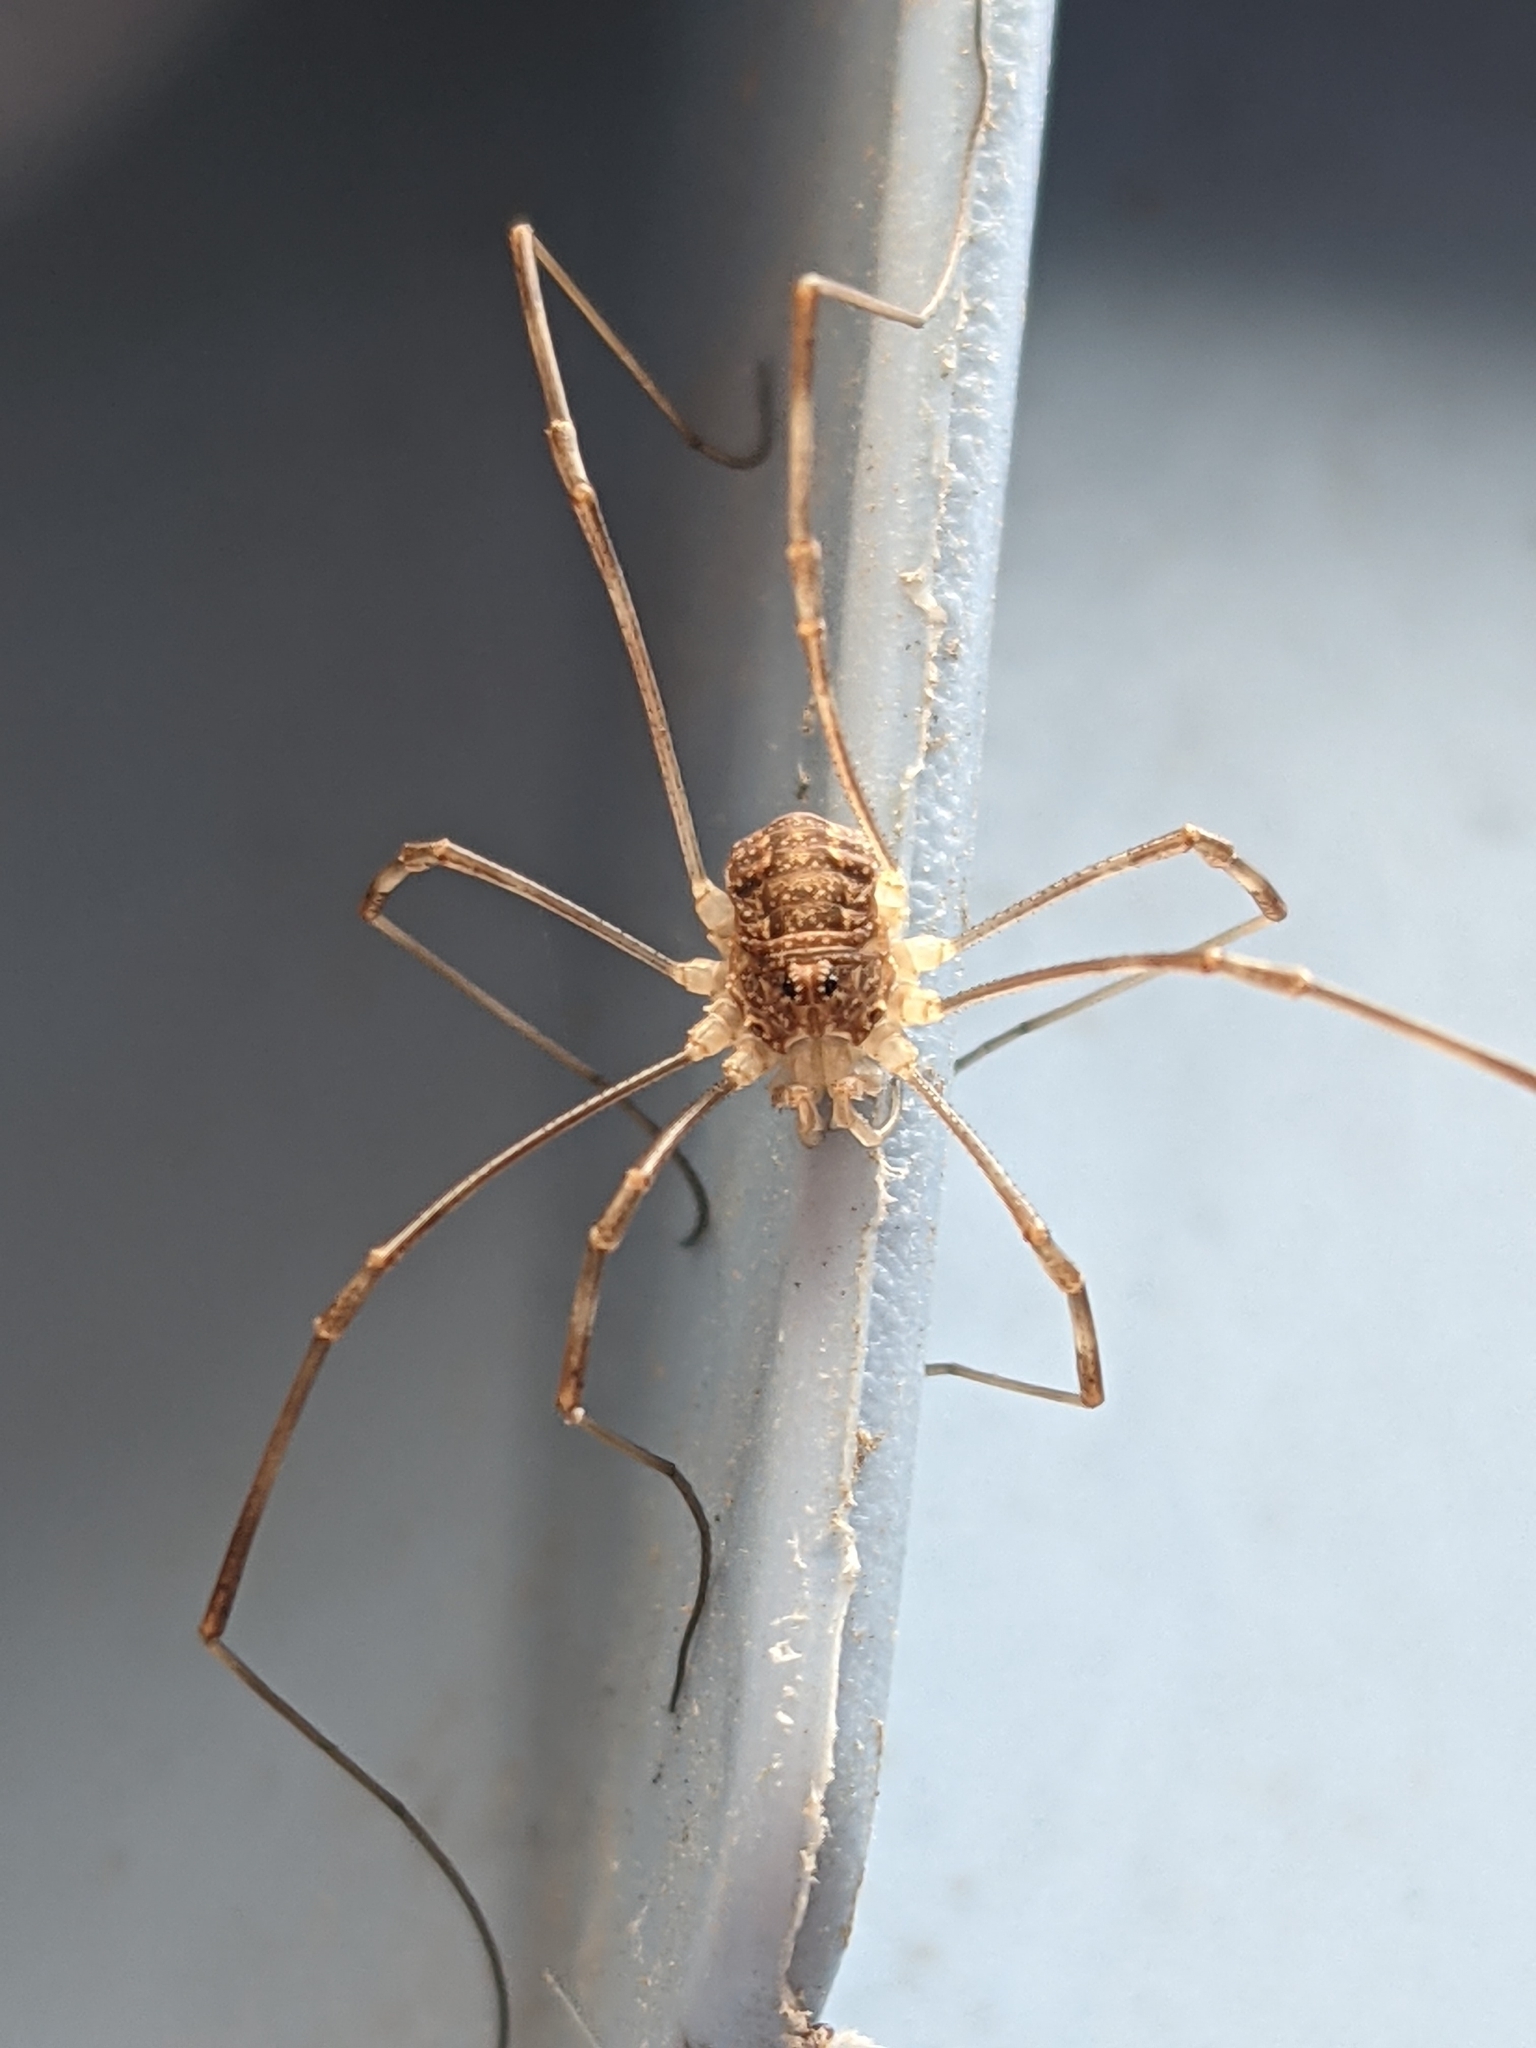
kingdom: Animalia
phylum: Arthropoda
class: Arachnida
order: Opiliones
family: Phalangiidae
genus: Rilaena
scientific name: Rilaena triangularis
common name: Spring harvestman
